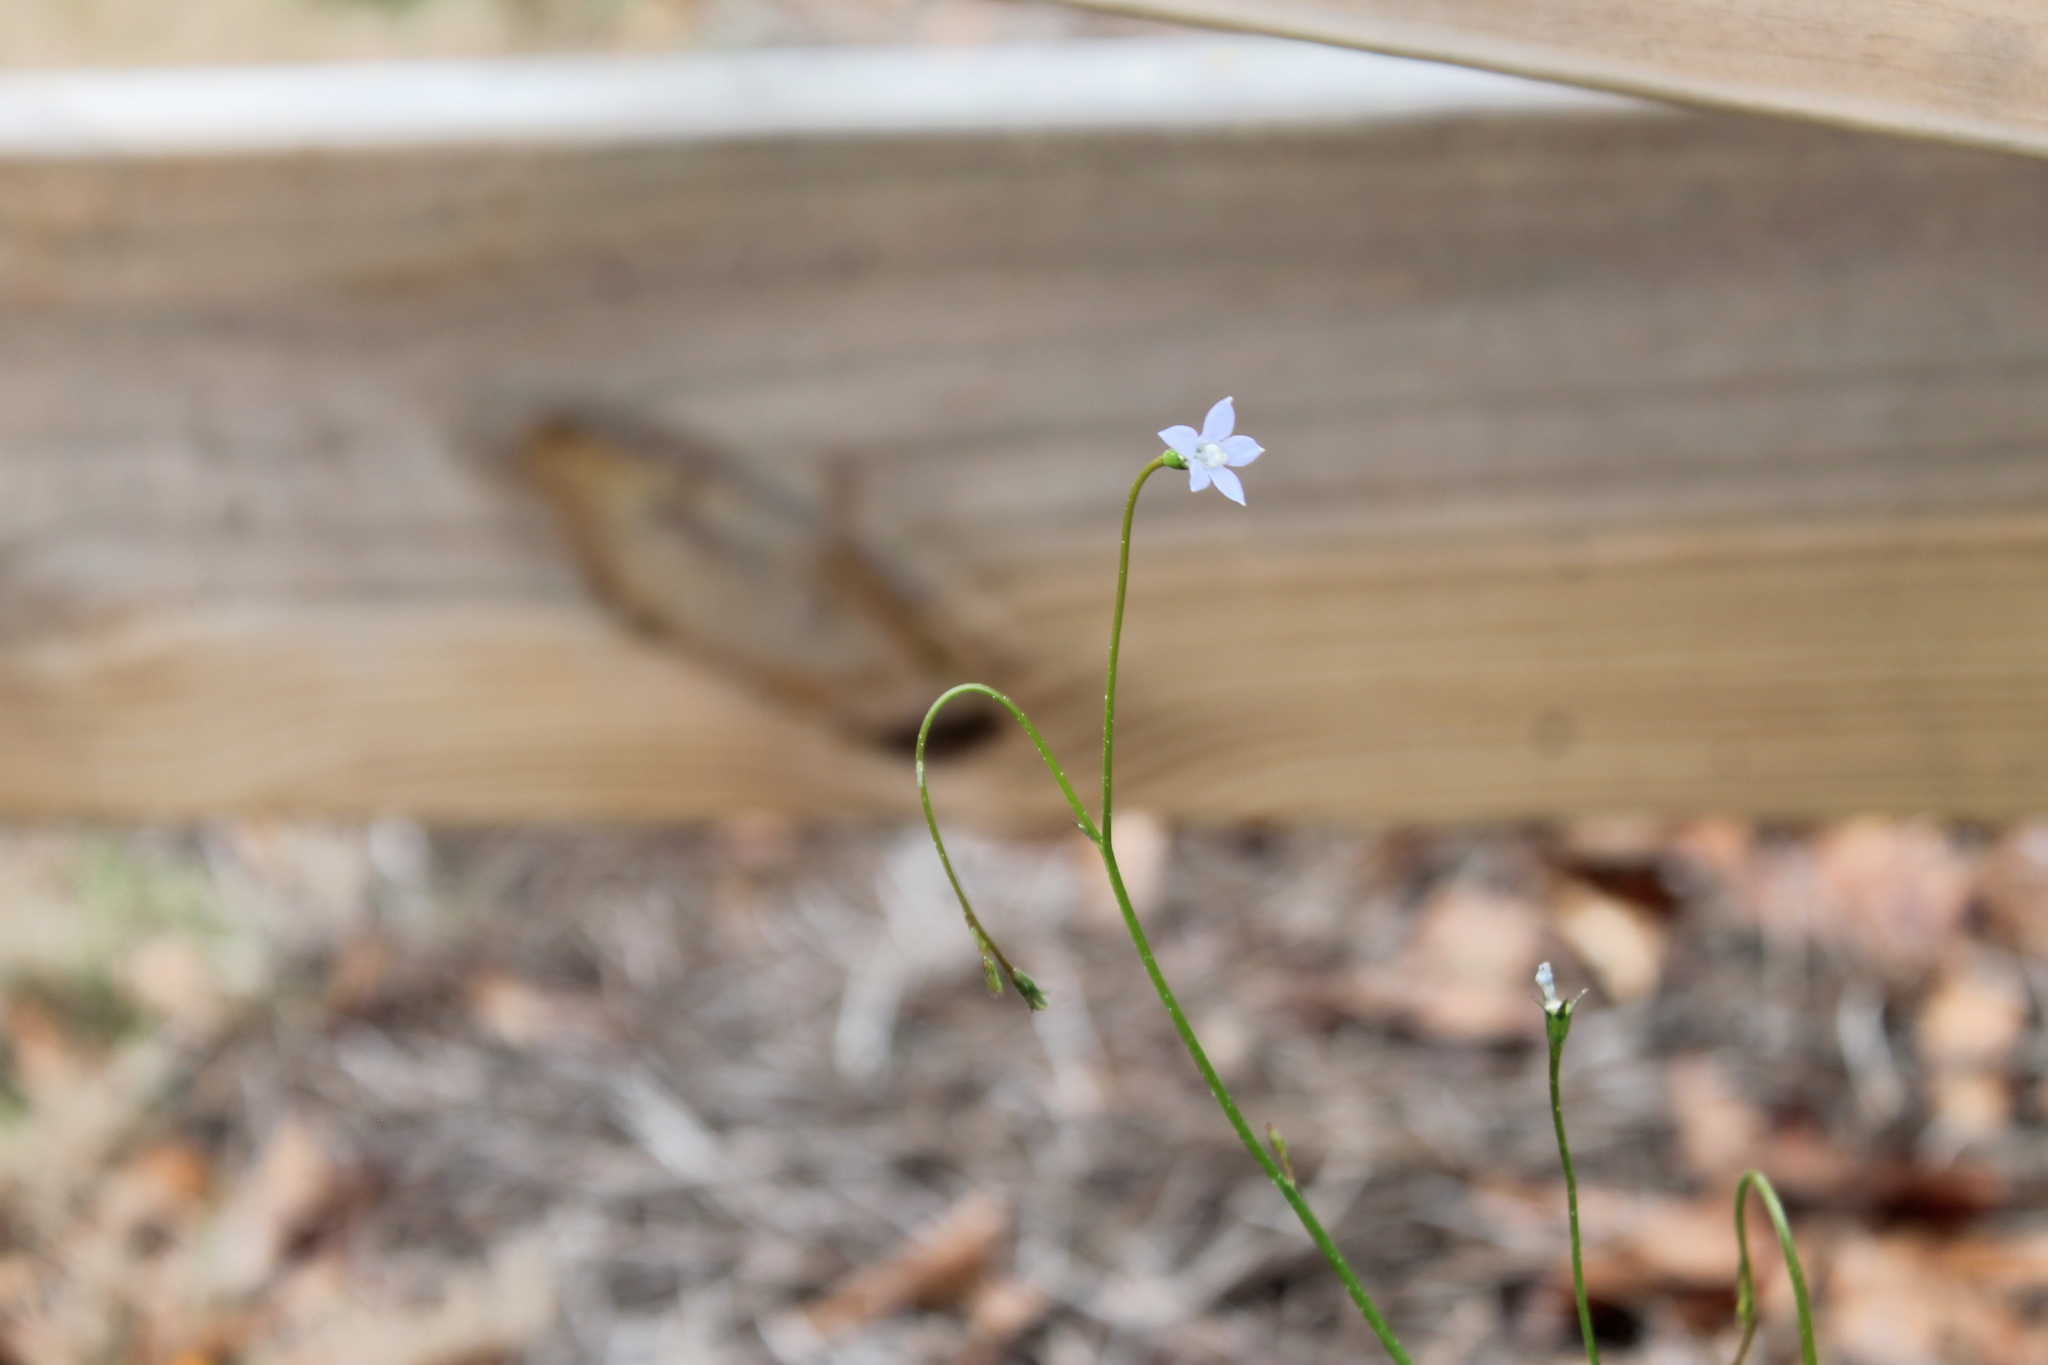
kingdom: Plantae
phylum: Tracheophyta
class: Magnoliopsida
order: Asterales
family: Campanulaceae
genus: Wahlenbergia
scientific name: Wahlenbergia marginata
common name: Southern rockbell
